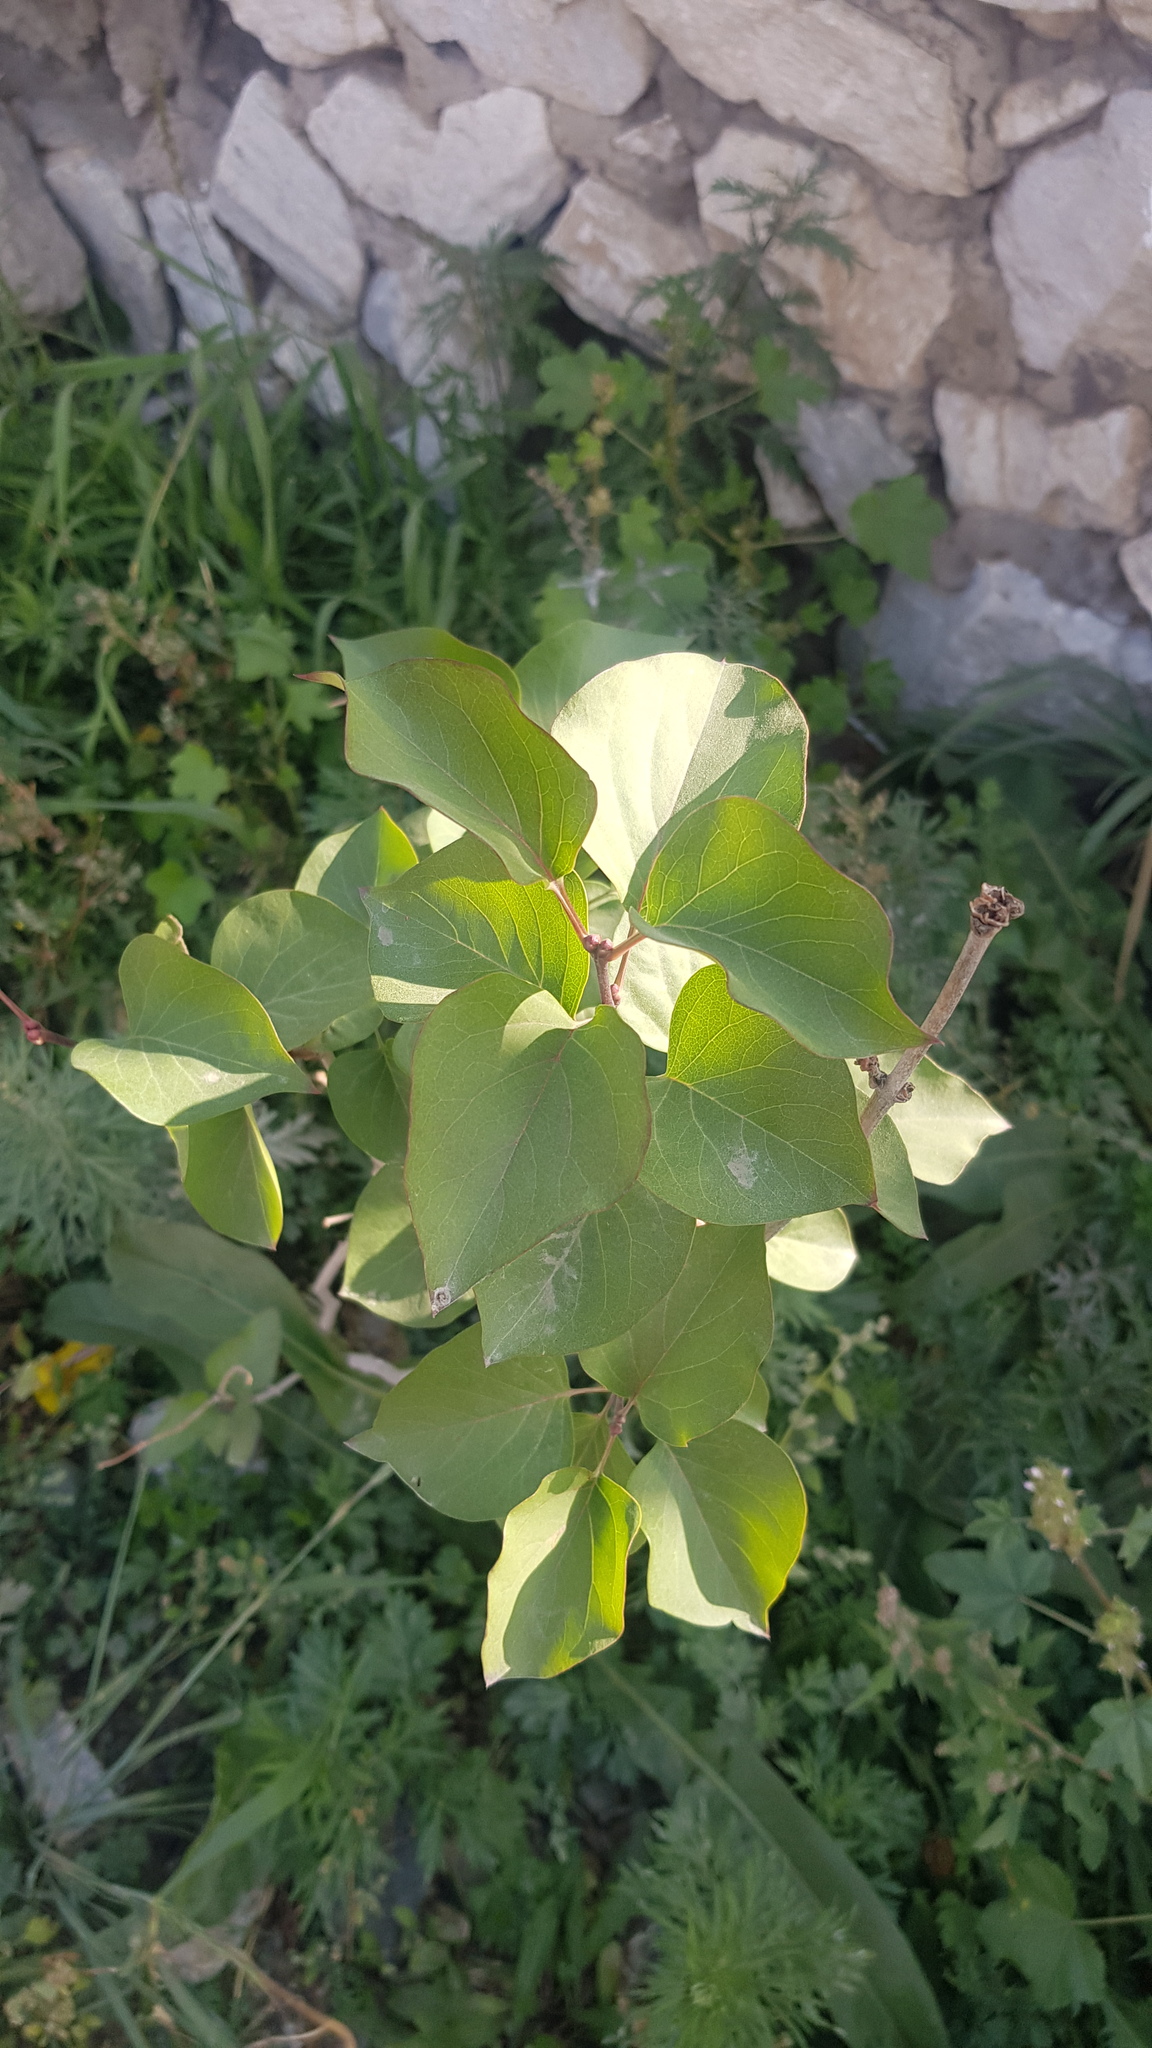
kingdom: Plantae
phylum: Tracheophyta
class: Magnoliopsida
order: Rosales
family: Rosaceae
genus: Prunus
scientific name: Prunus armeniaca
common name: Apricot
